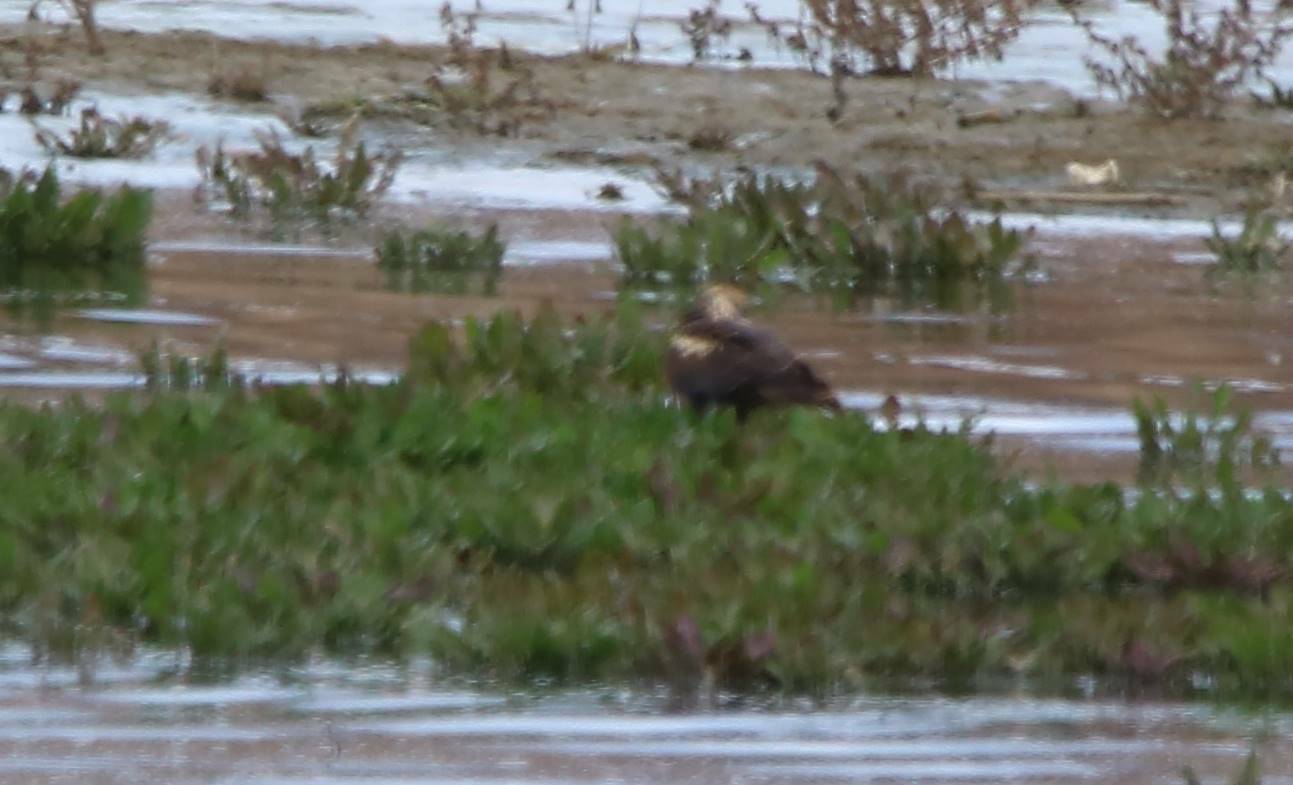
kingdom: Animalia
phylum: Chordata
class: Aves
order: Accipitriformes
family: Accipitridae
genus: Circus
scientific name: Circus aeruginosus
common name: Western marsh harrier
